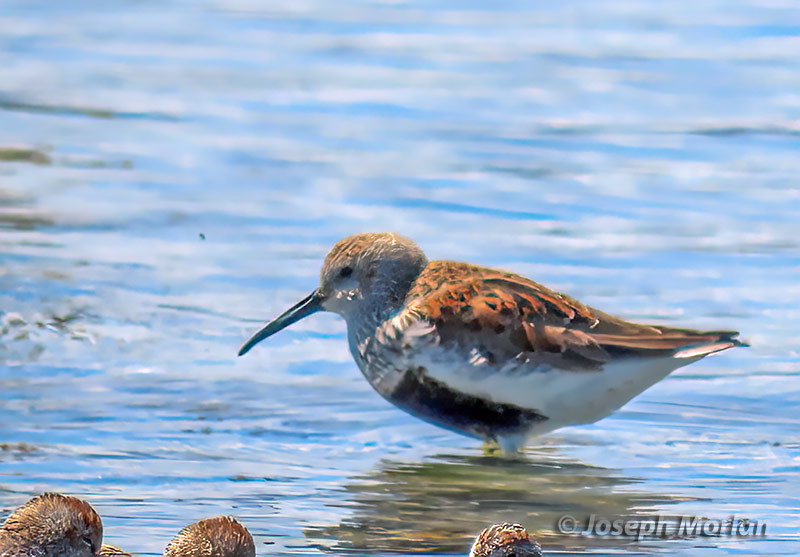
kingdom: Animalia
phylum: Chordata
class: Aves
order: Charadriiformes
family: Scolopacidae
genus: Calidris
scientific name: Calidris alpina
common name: Dunlin
